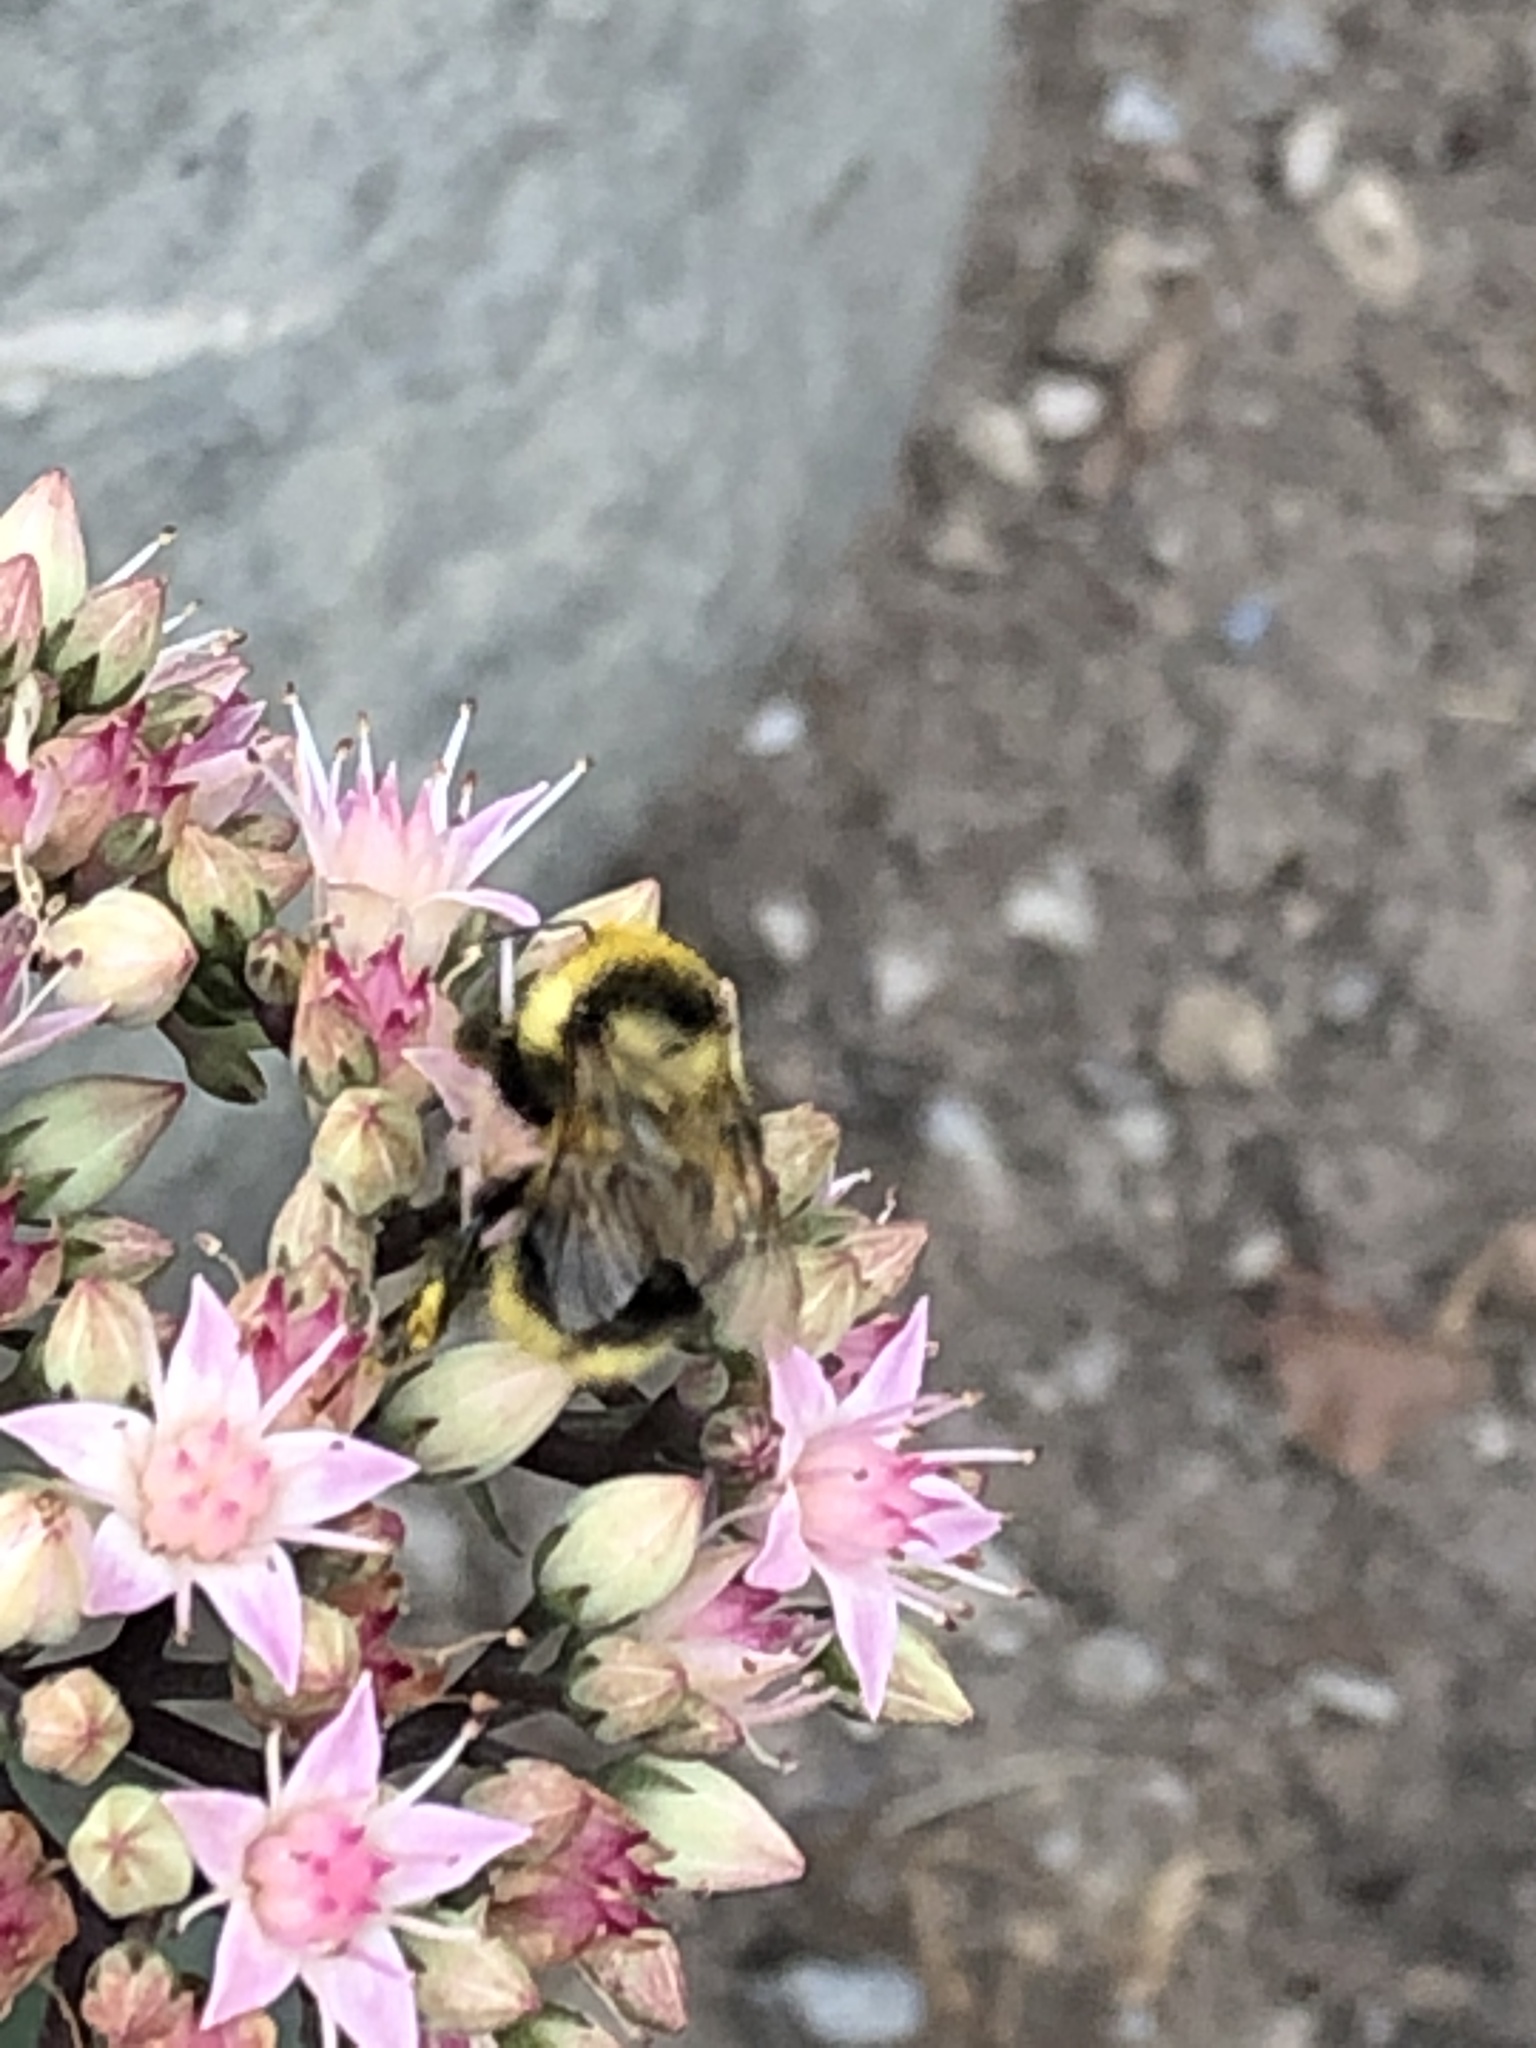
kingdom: Animalia
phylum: Arthropoda
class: Insecta
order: Hymenoptera
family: Apidae
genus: Bombus
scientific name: Bombus rufocinctus
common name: Red-belted bumble bee
